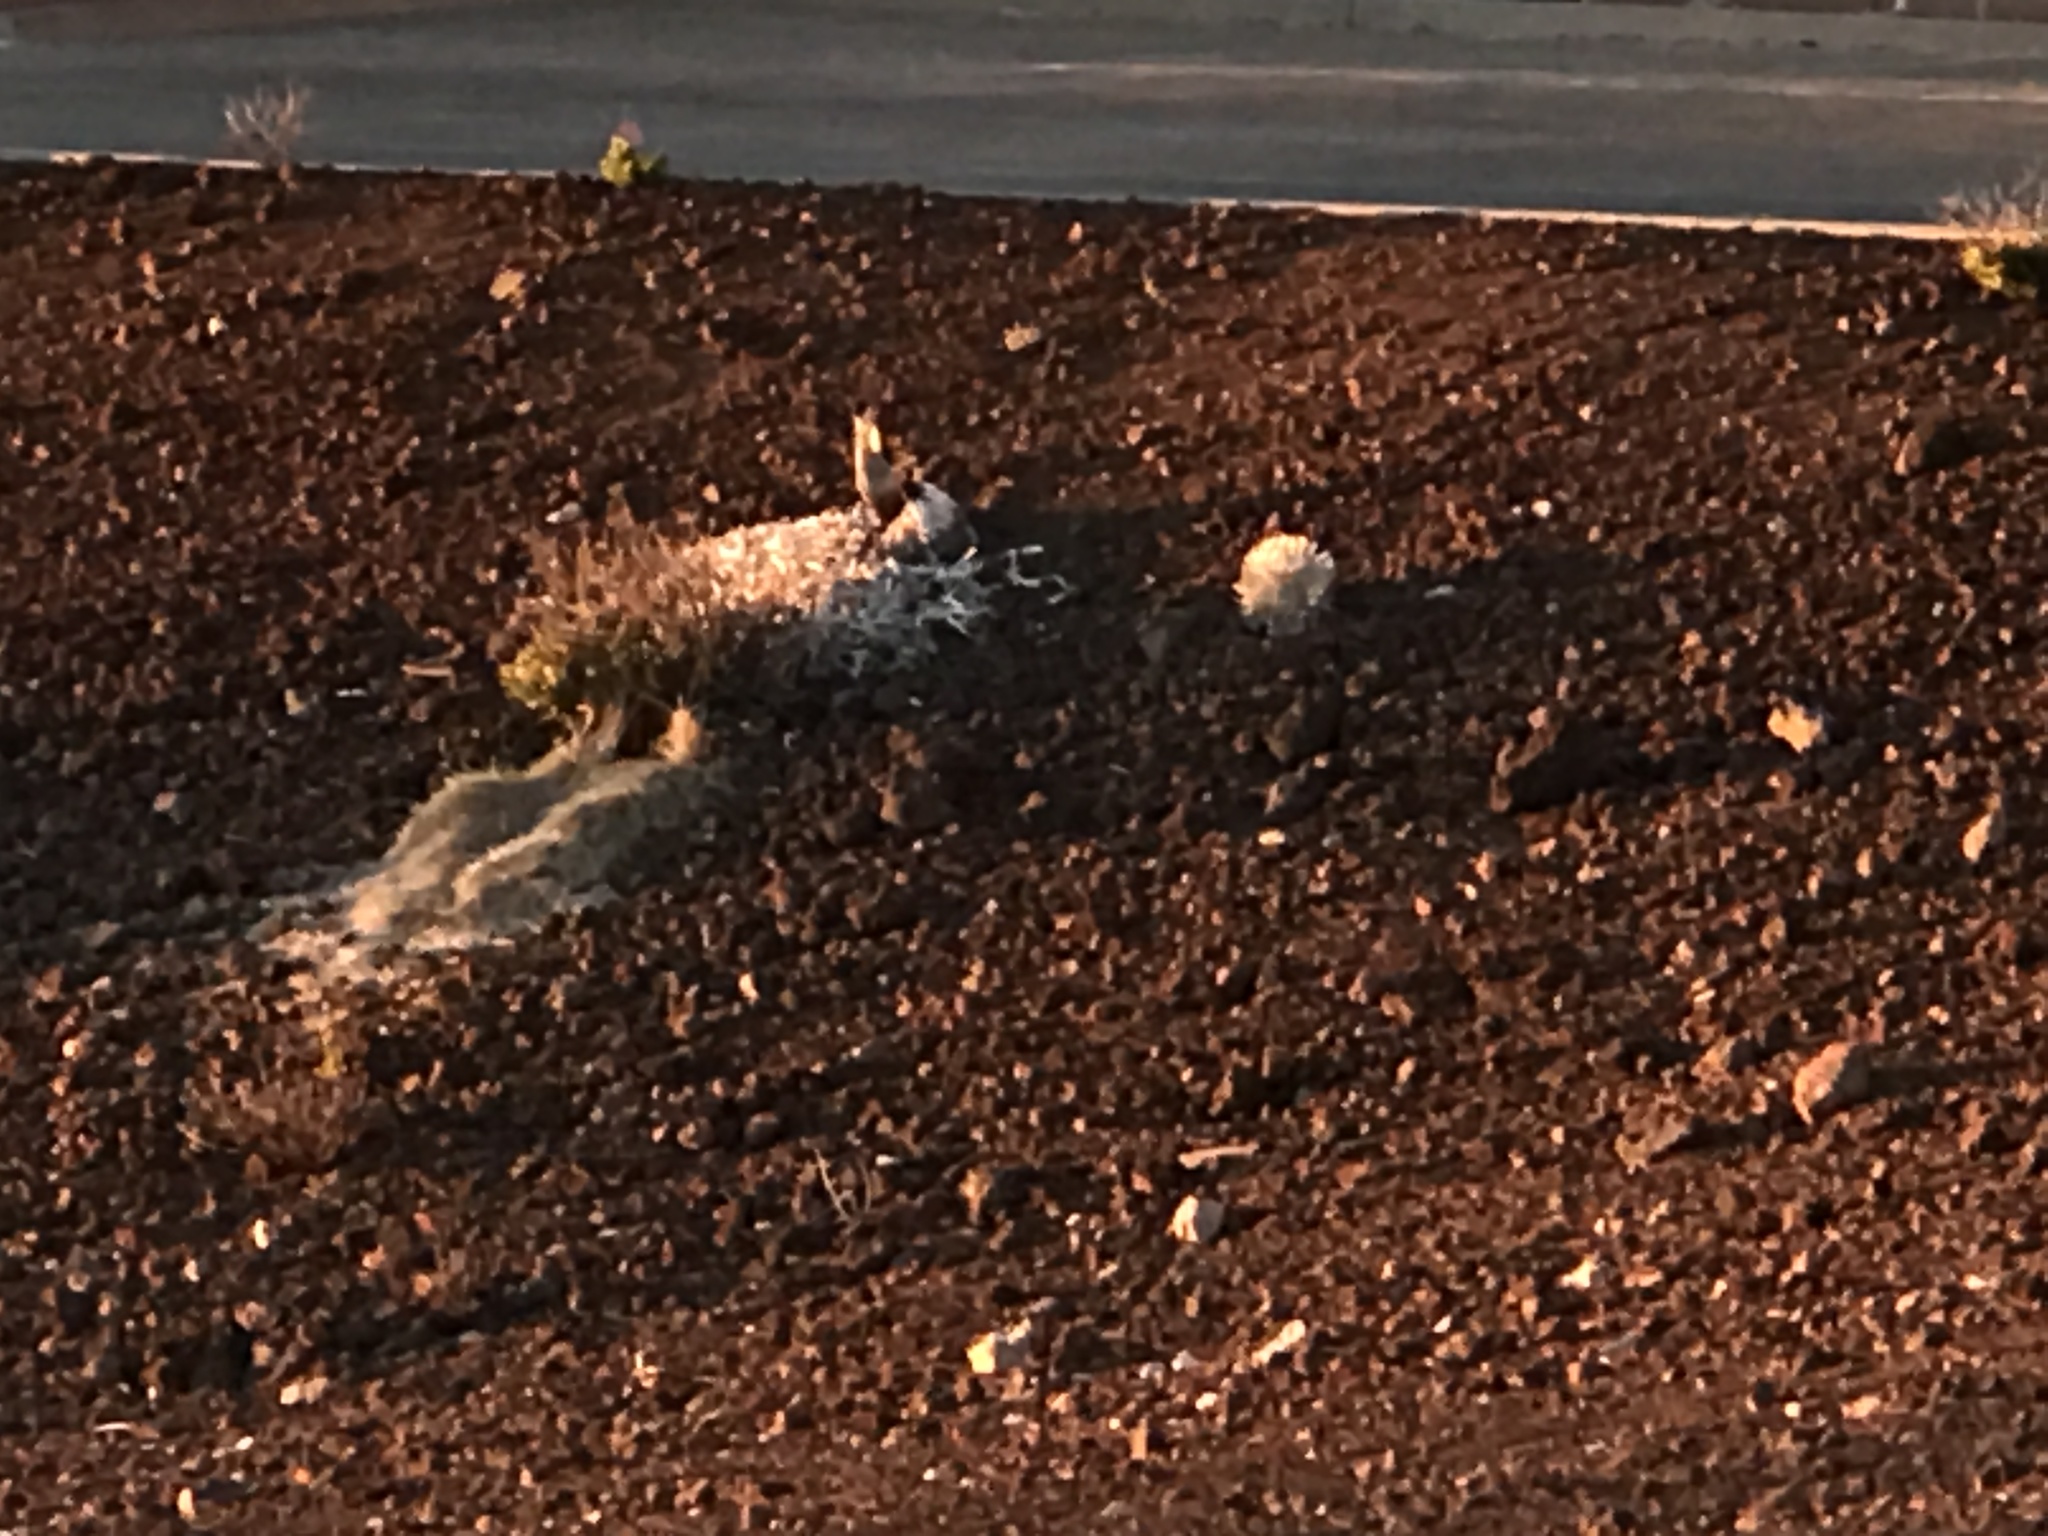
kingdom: Plantae
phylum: Tracheophyta
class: Magnoliopsida
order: Asterales
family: Asteraceae
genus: Argyroxiphium
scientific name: Argyroxiphium sandwicense
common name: Silversword
